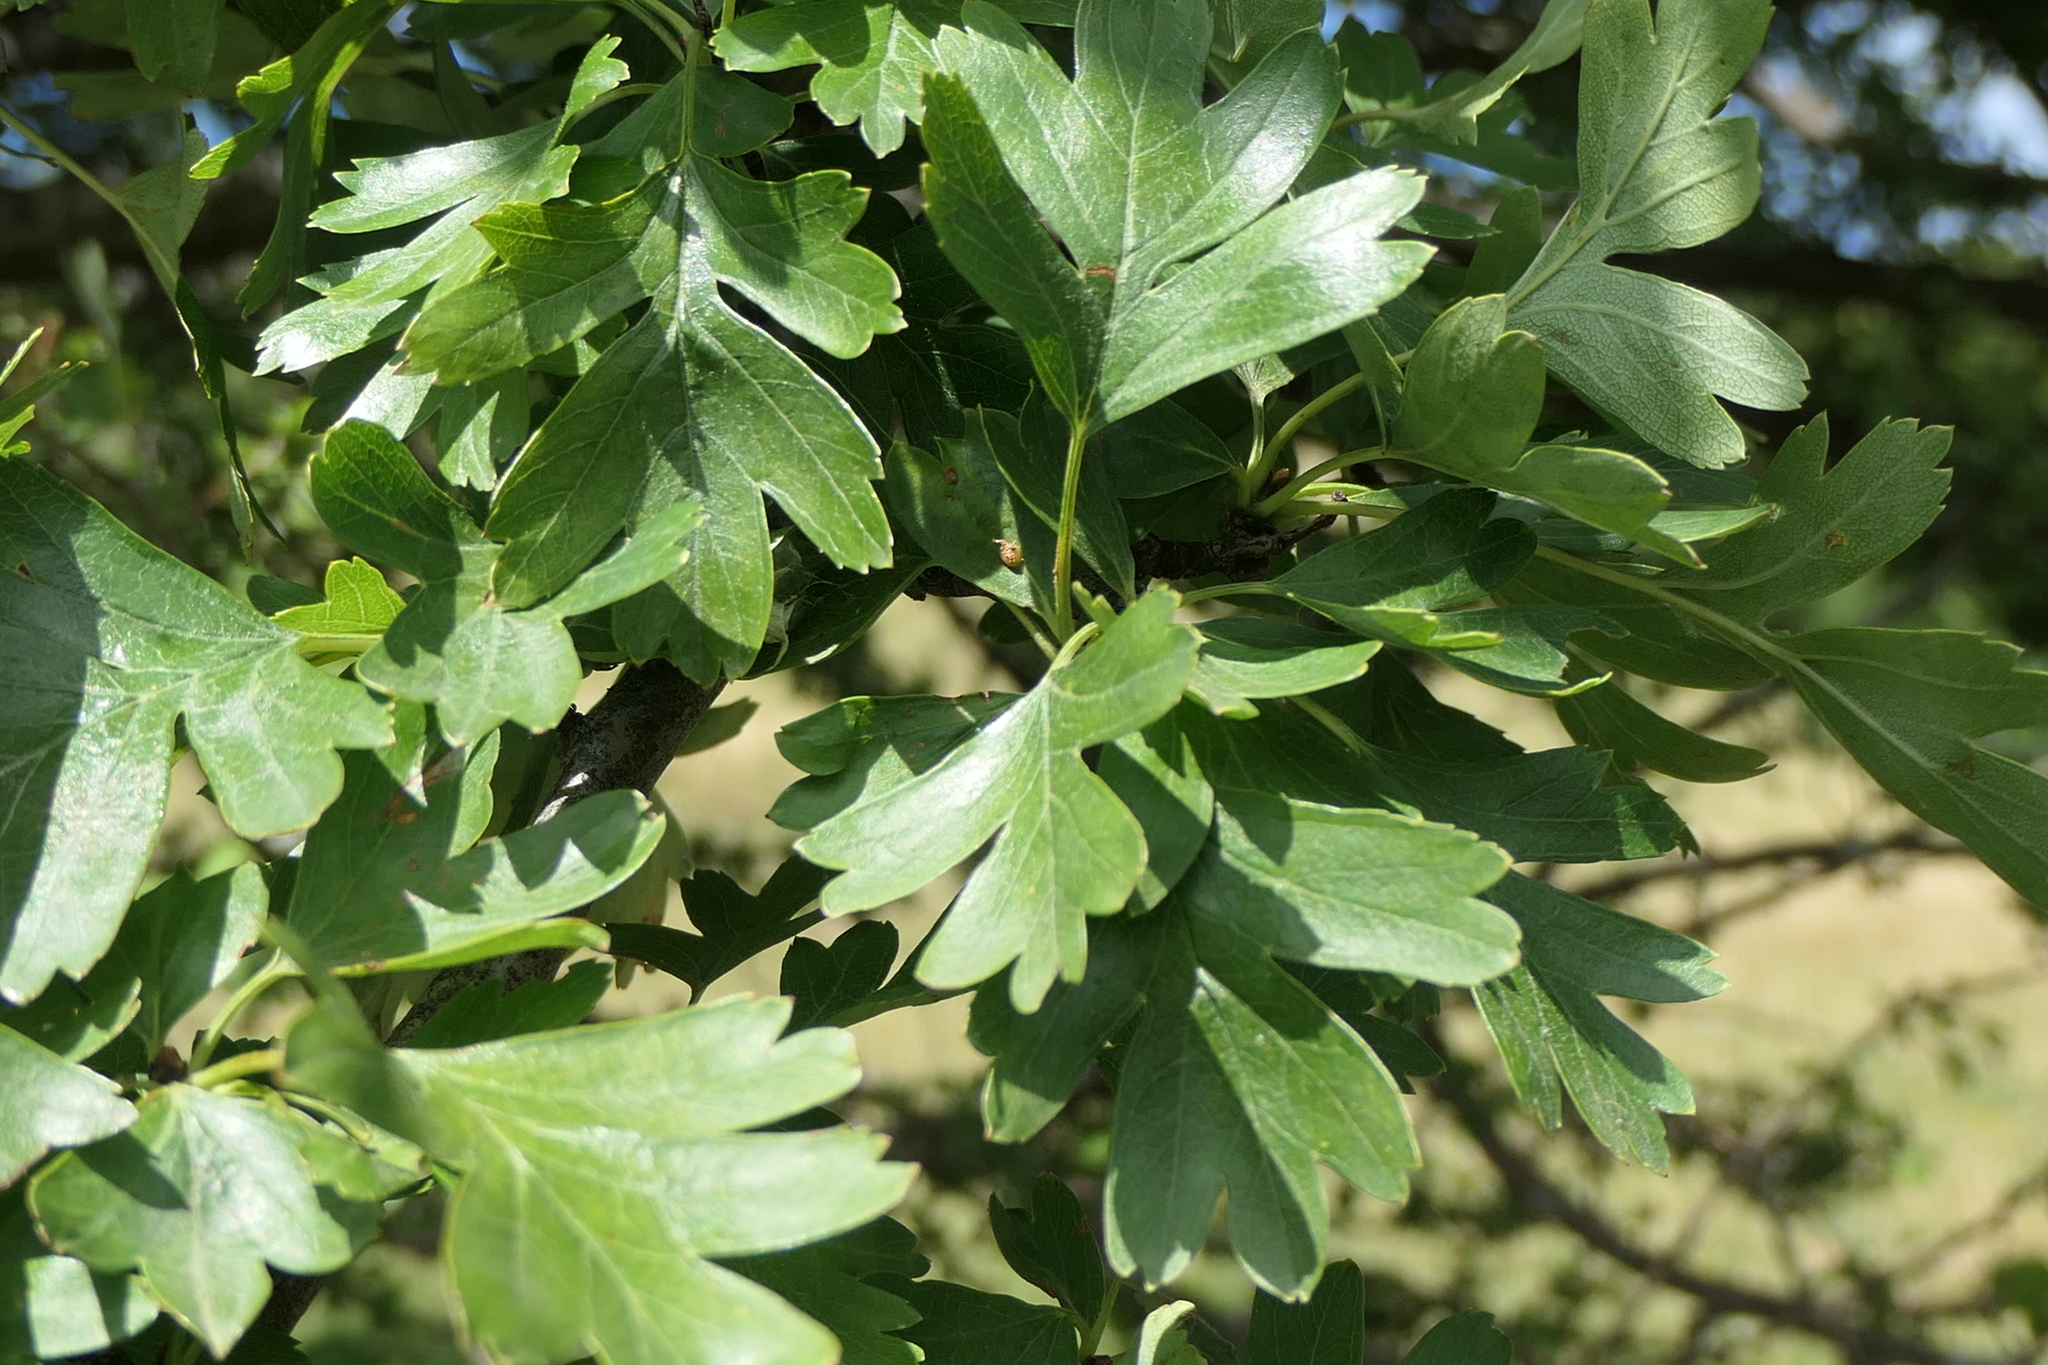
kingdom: Plantae
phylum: Tracheophyta
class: Magnoliopsida
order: Rosales
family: Rosaceae
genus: Crataegus
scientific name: Crataegus monogyna
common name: Hawthorn
